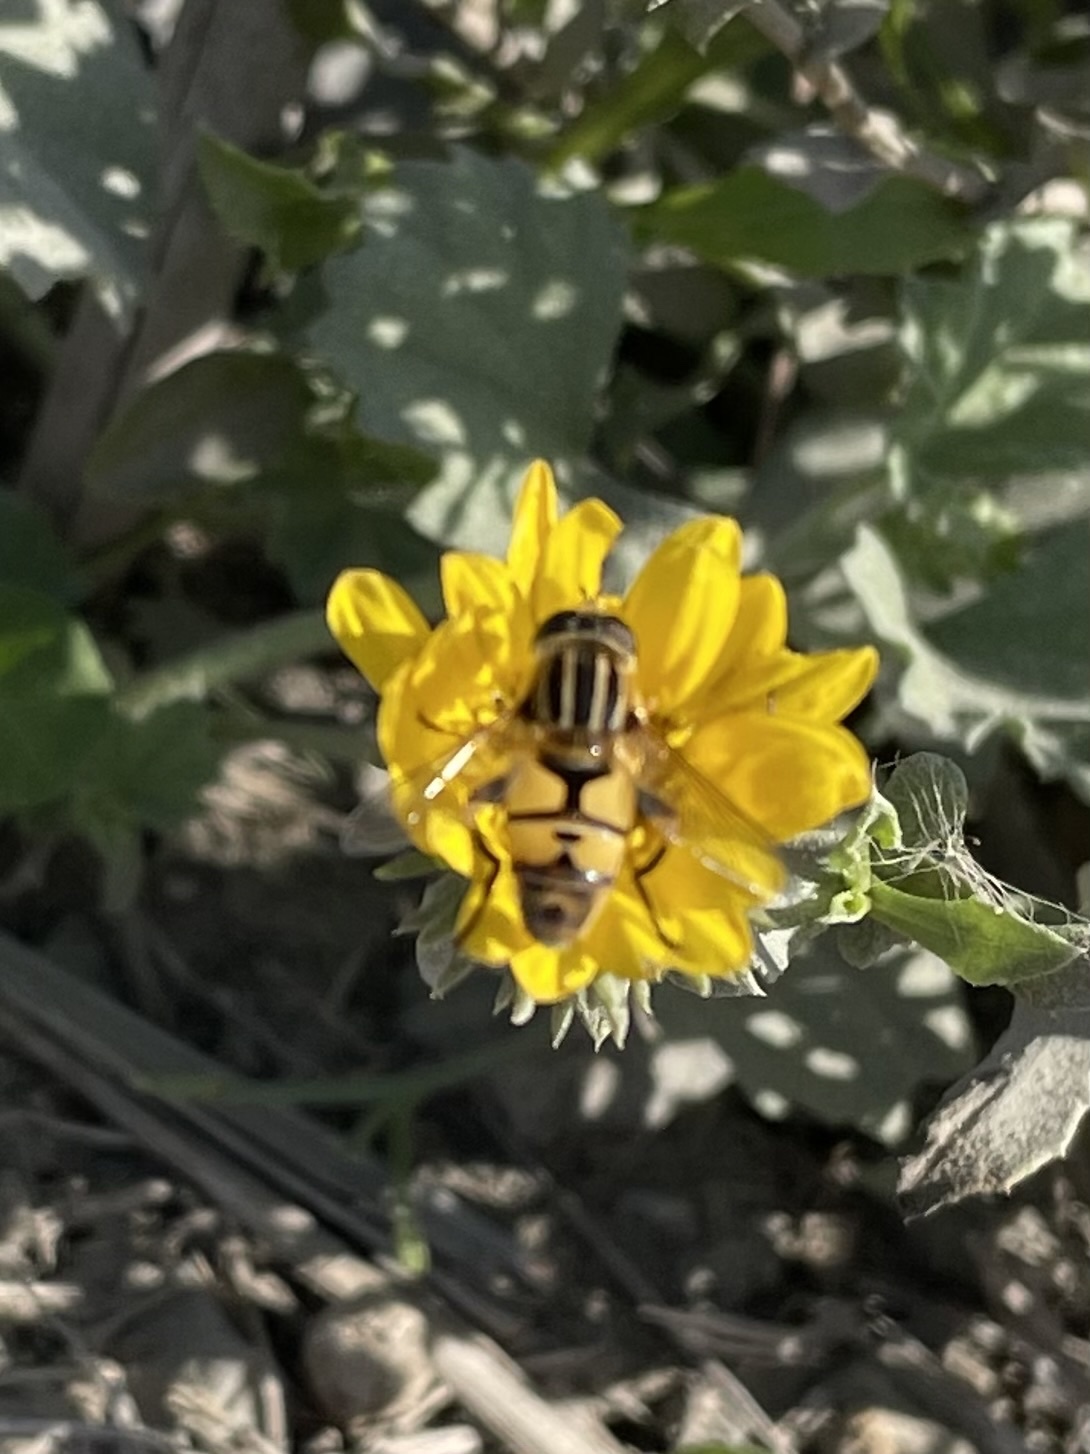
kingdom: Animalia
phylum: Arthropoda
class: Insecta
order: Diptera
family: Syrphidae
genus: Helophilus
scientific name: Helophilus latifrons
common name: Broad-headed marsh fly
